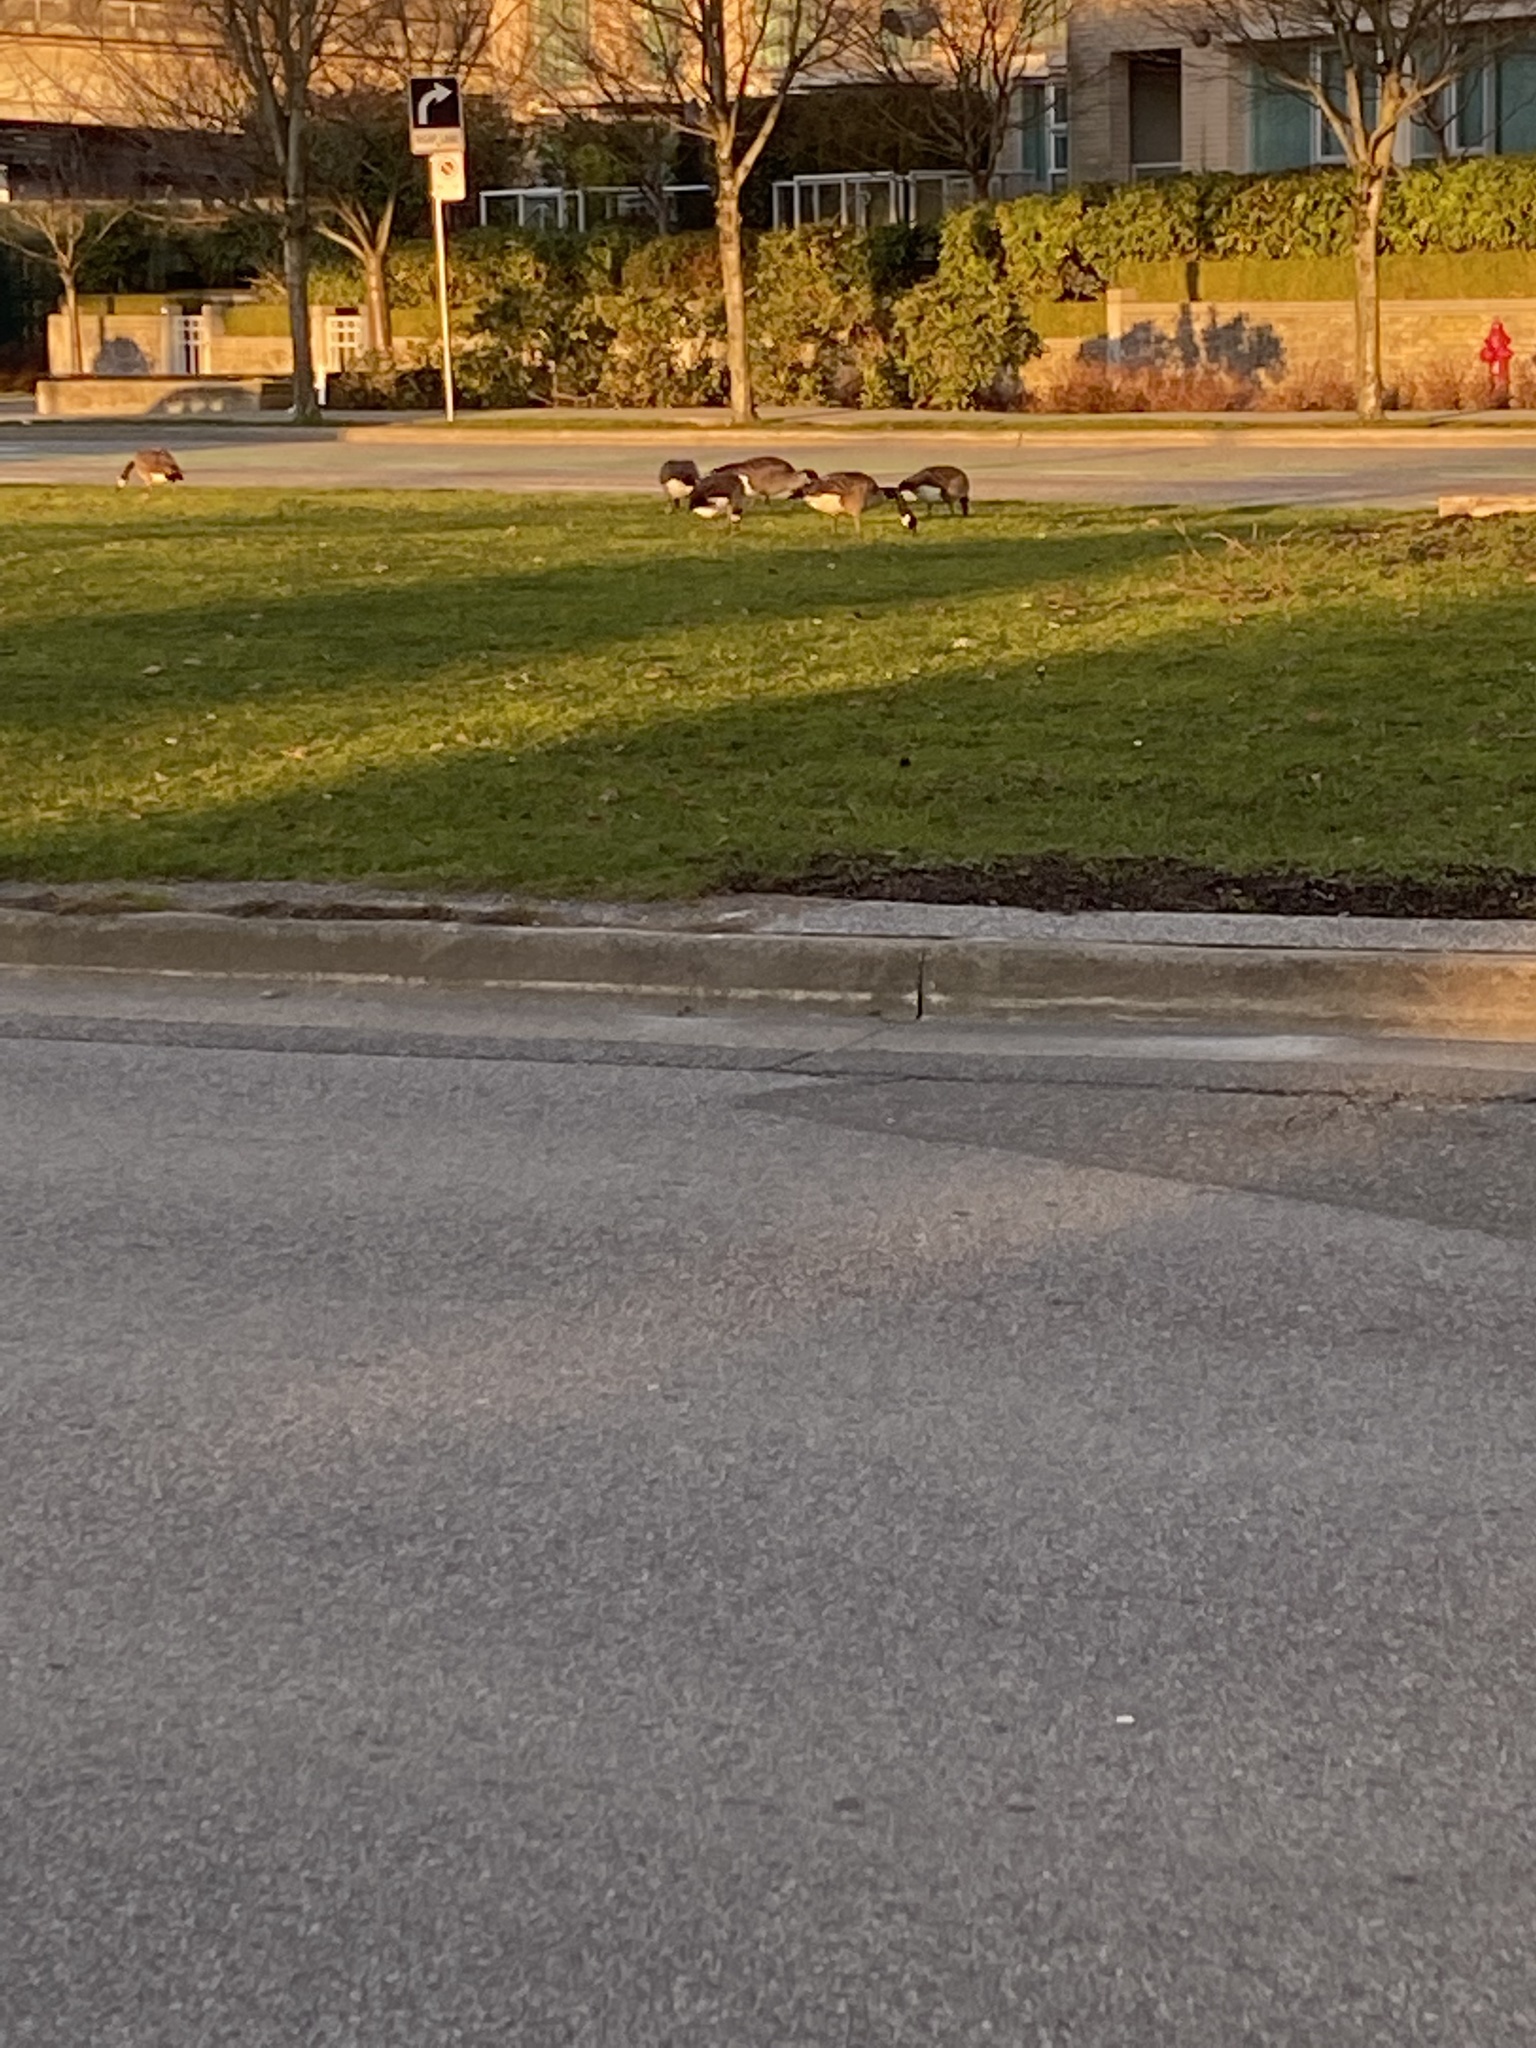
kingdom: Animalia
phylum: Chordata
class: Aves
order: Anseriformes
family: Anatidae
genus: Branta
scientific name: Branta canadensis
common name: Canada goose
